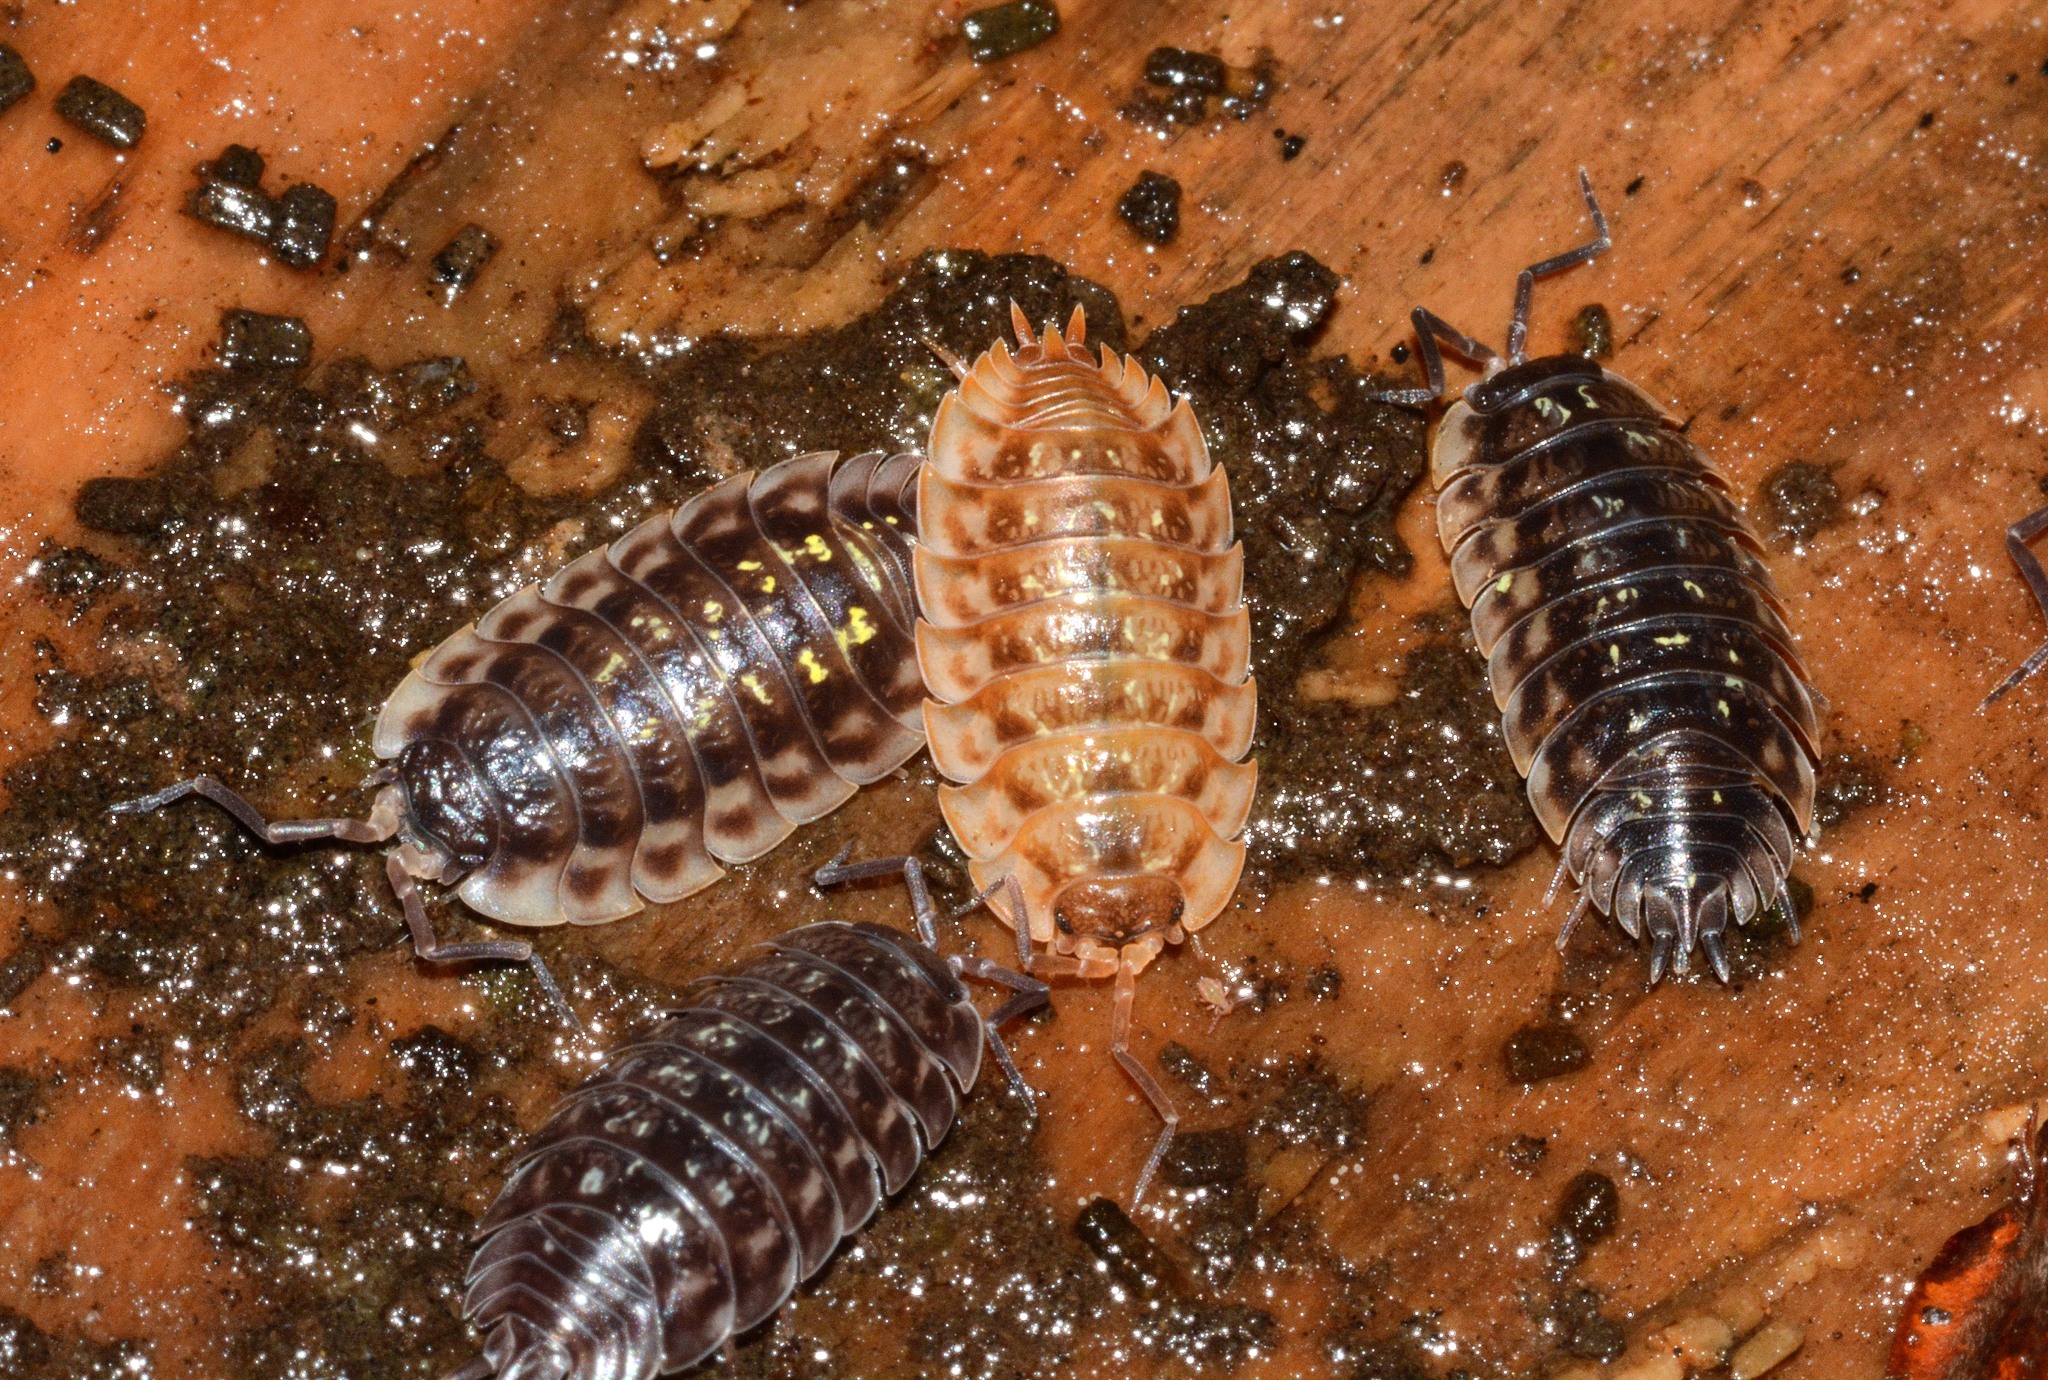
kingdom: Animalia
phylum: Arthropoda
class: Malacostraca
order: Isopoda
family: Oniscidae
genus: Oniscus
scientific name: Oniscus asellus
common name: Common shiny woodlouse
